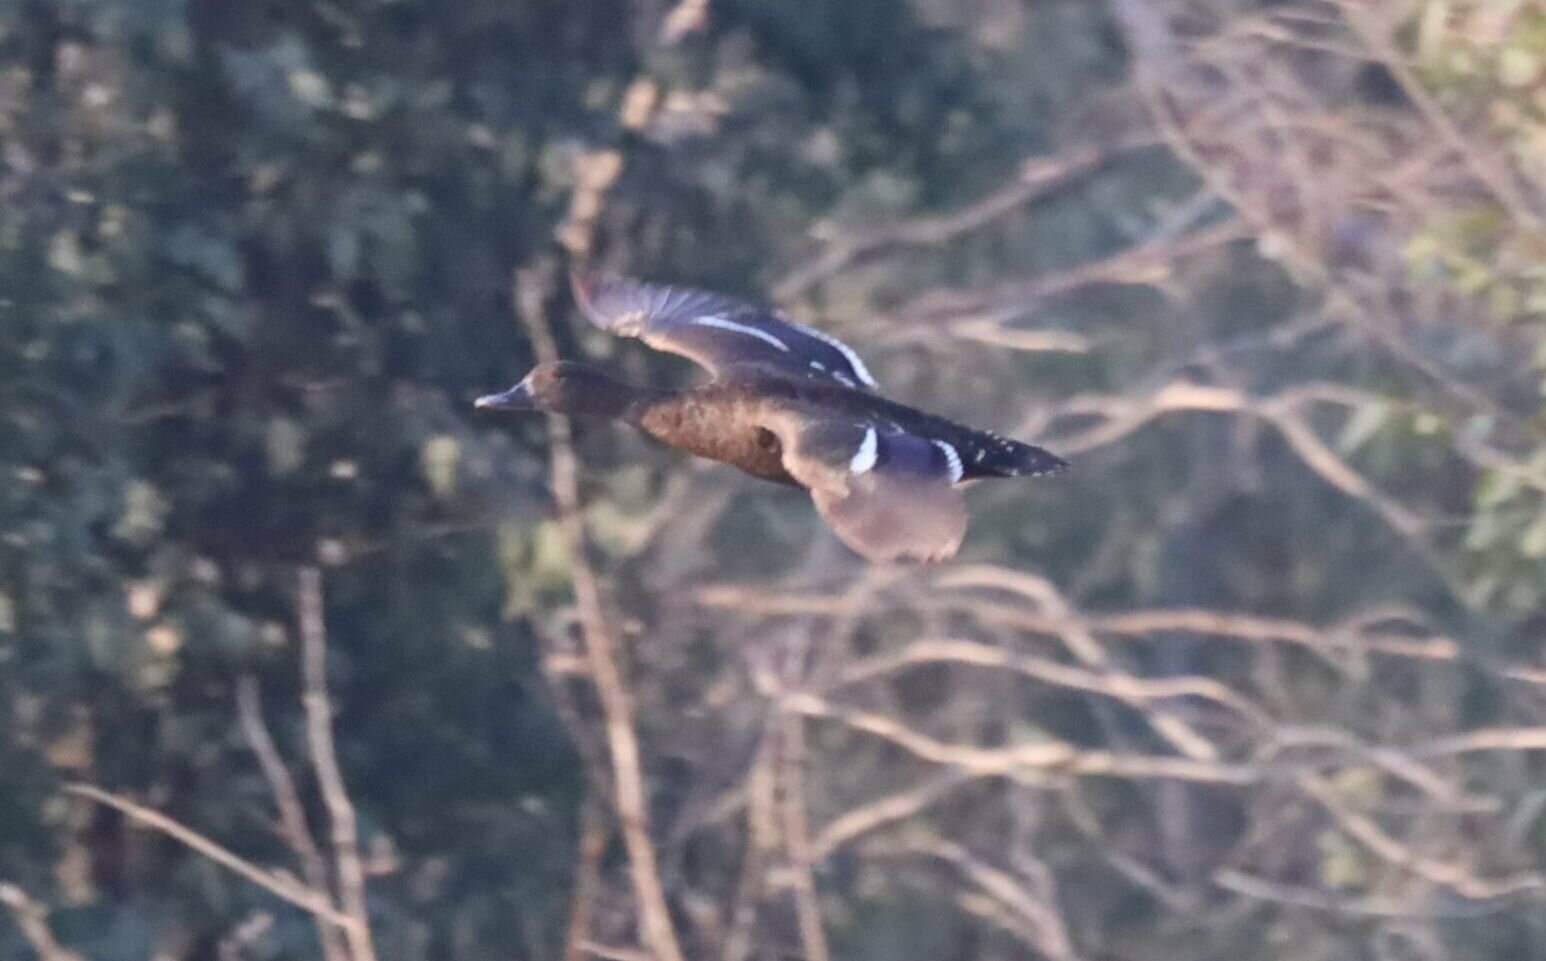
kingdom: Animalia
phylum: Chordata
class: Aves
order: Anseriformes
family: Anatidae
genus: Anas
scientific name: Anas sparsa
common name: African black duck
